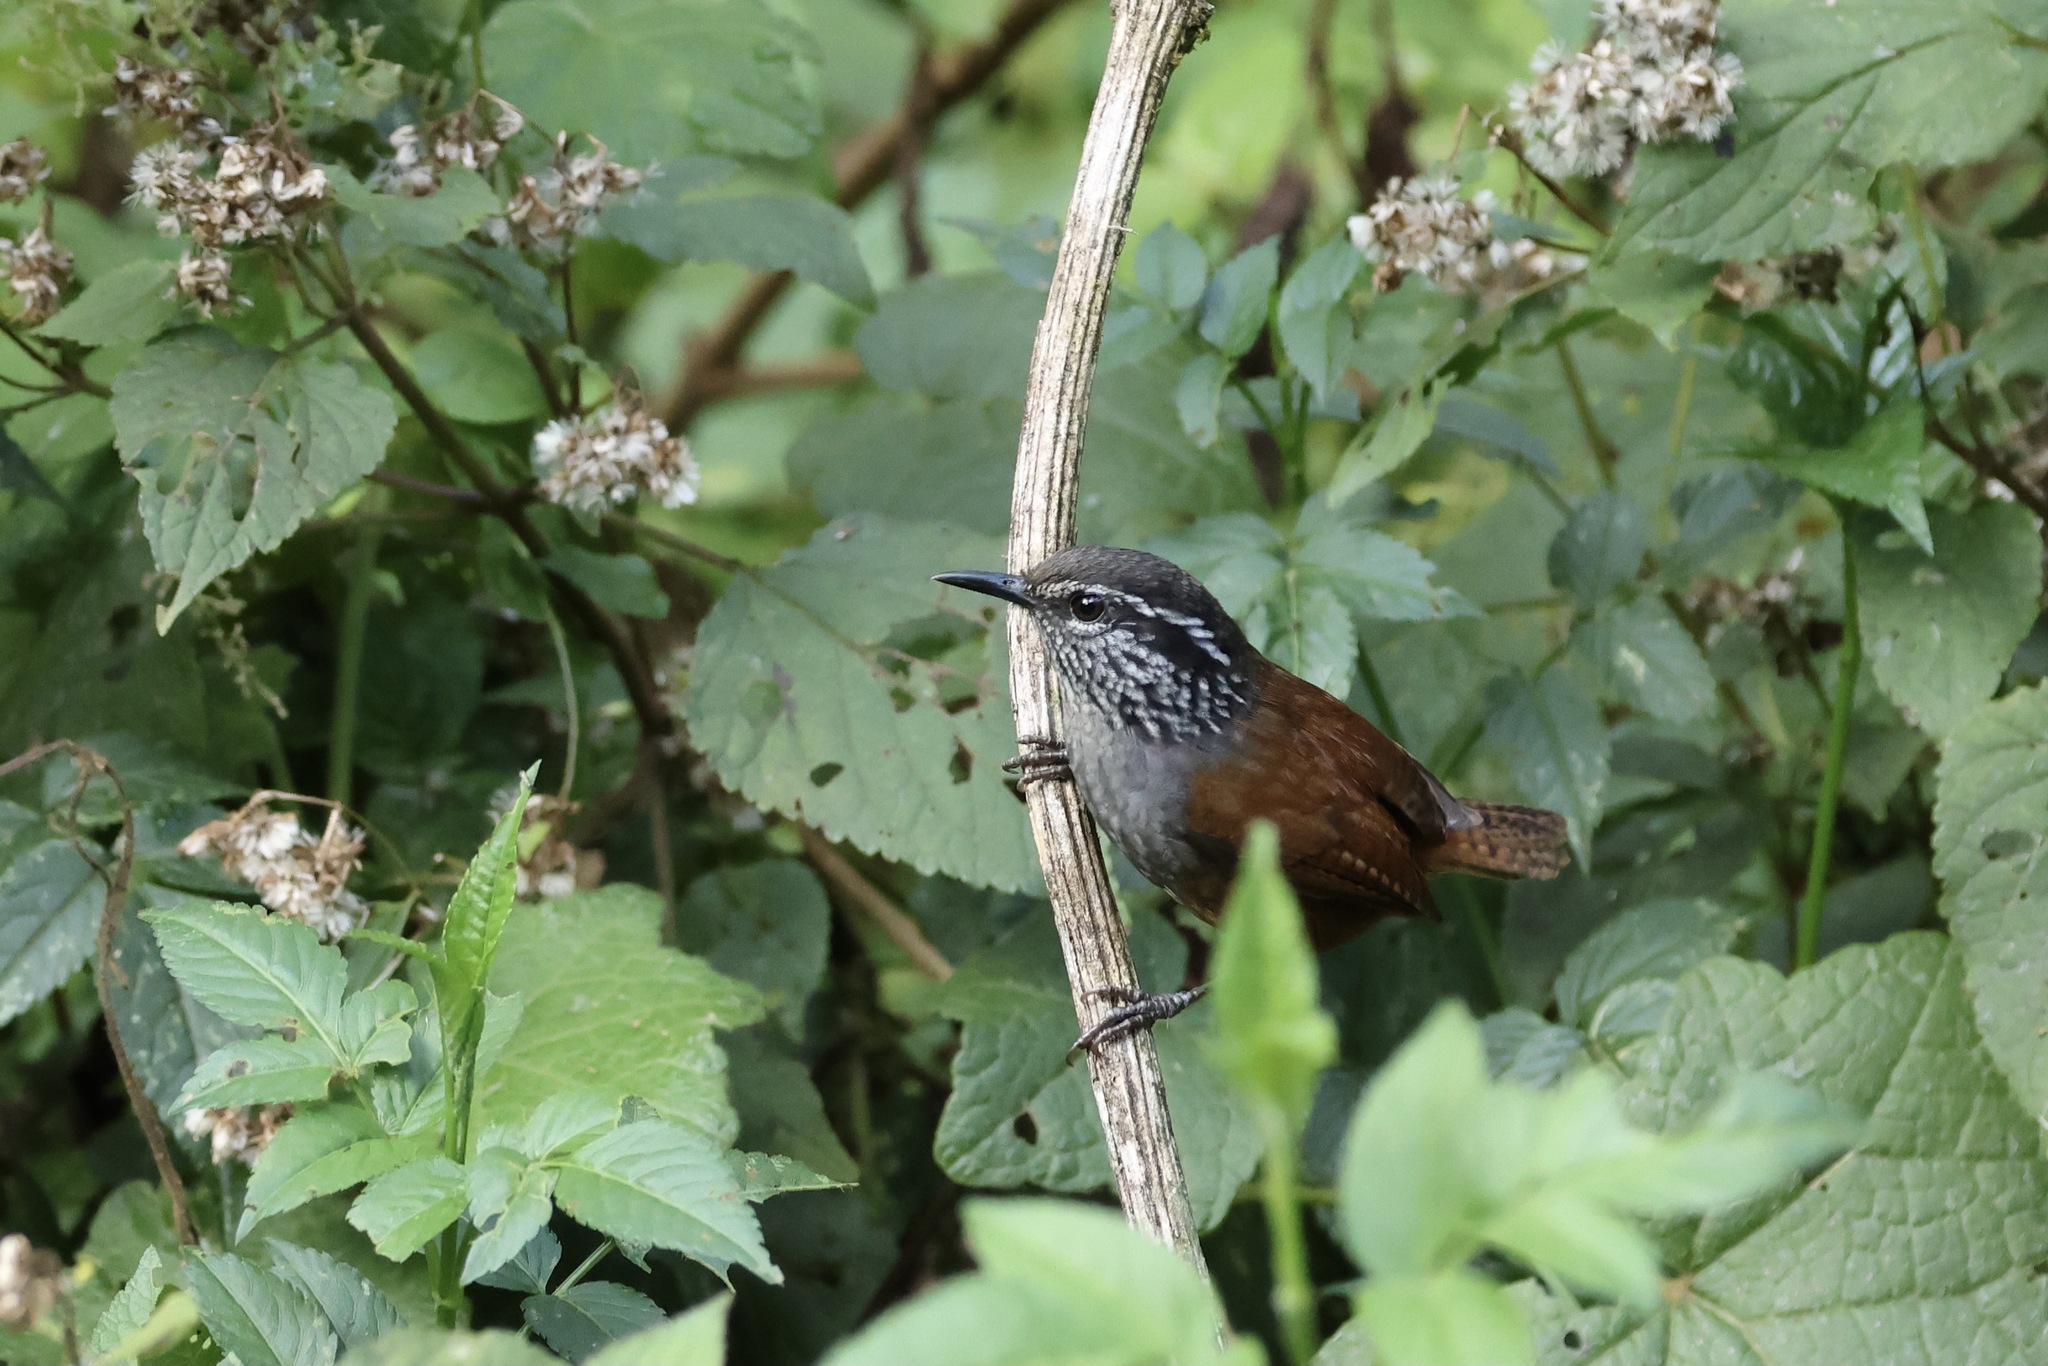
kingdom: Animalia
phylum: Chordata
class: Aves
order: Passeriformes
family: Troglodytidae
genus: Henicorhina
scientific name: Henicorhina leucophrys
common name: Gray-breasted wood-wren
